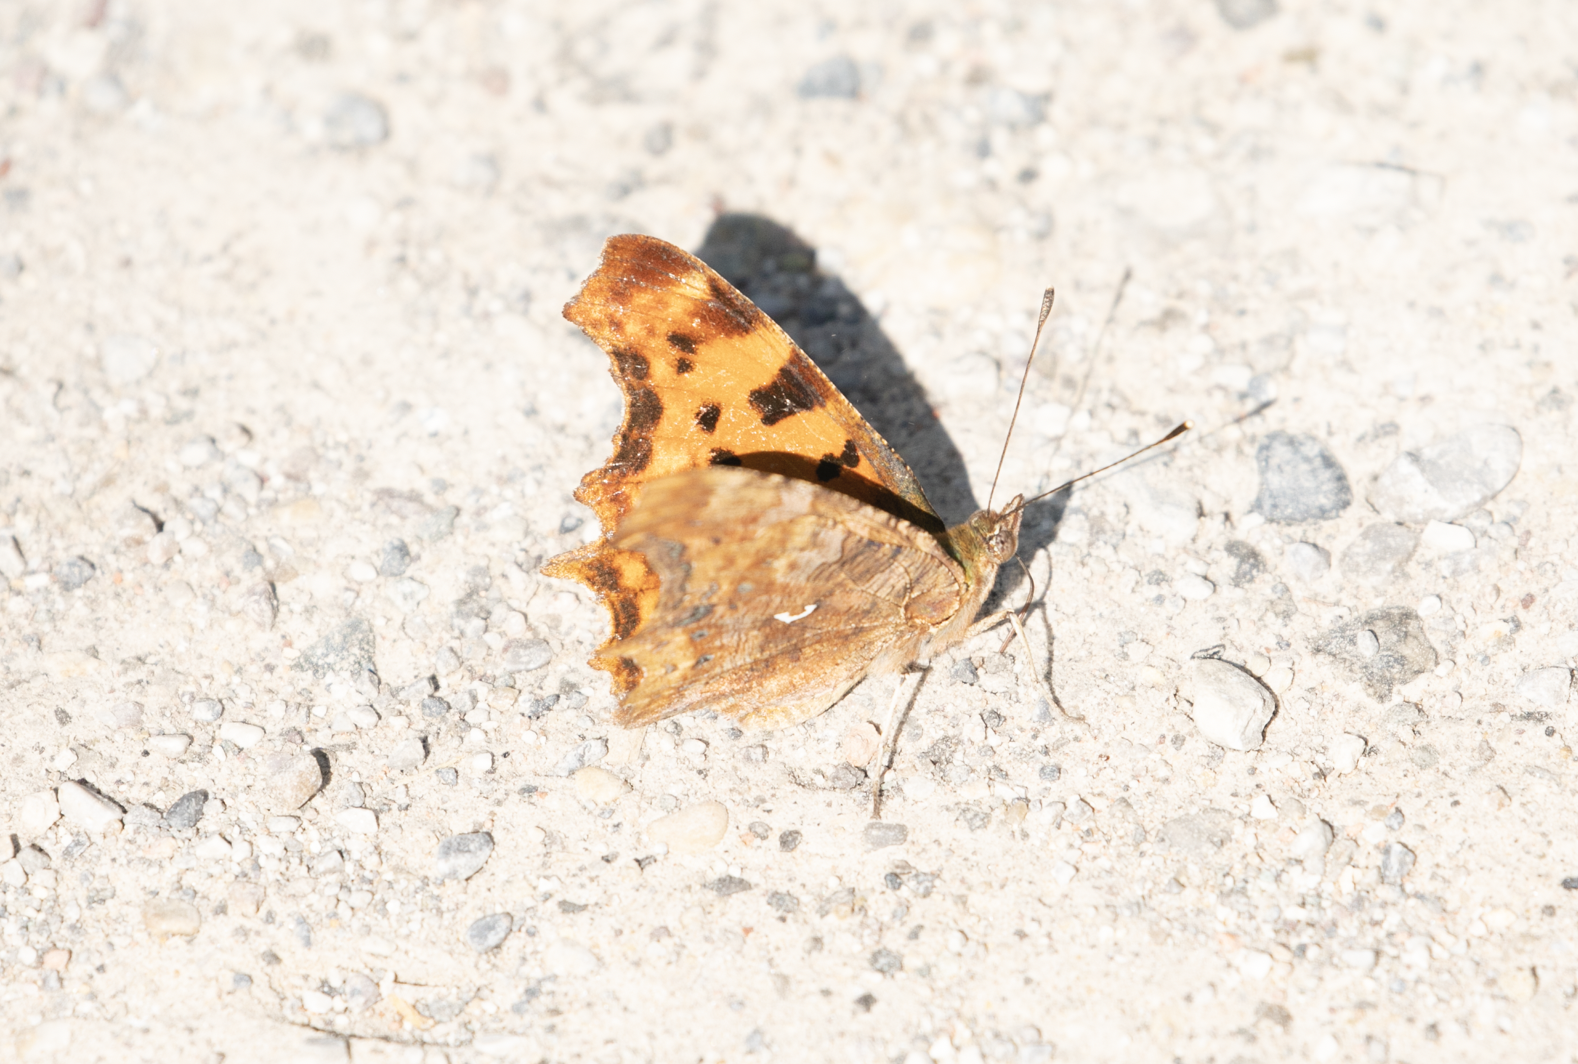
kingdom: Animalia
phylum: Arthropoda
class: Insecta
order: Lepidoptera
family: Nymphalidae
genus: Polygonia
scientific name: Polygonia c-album
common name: Comma
